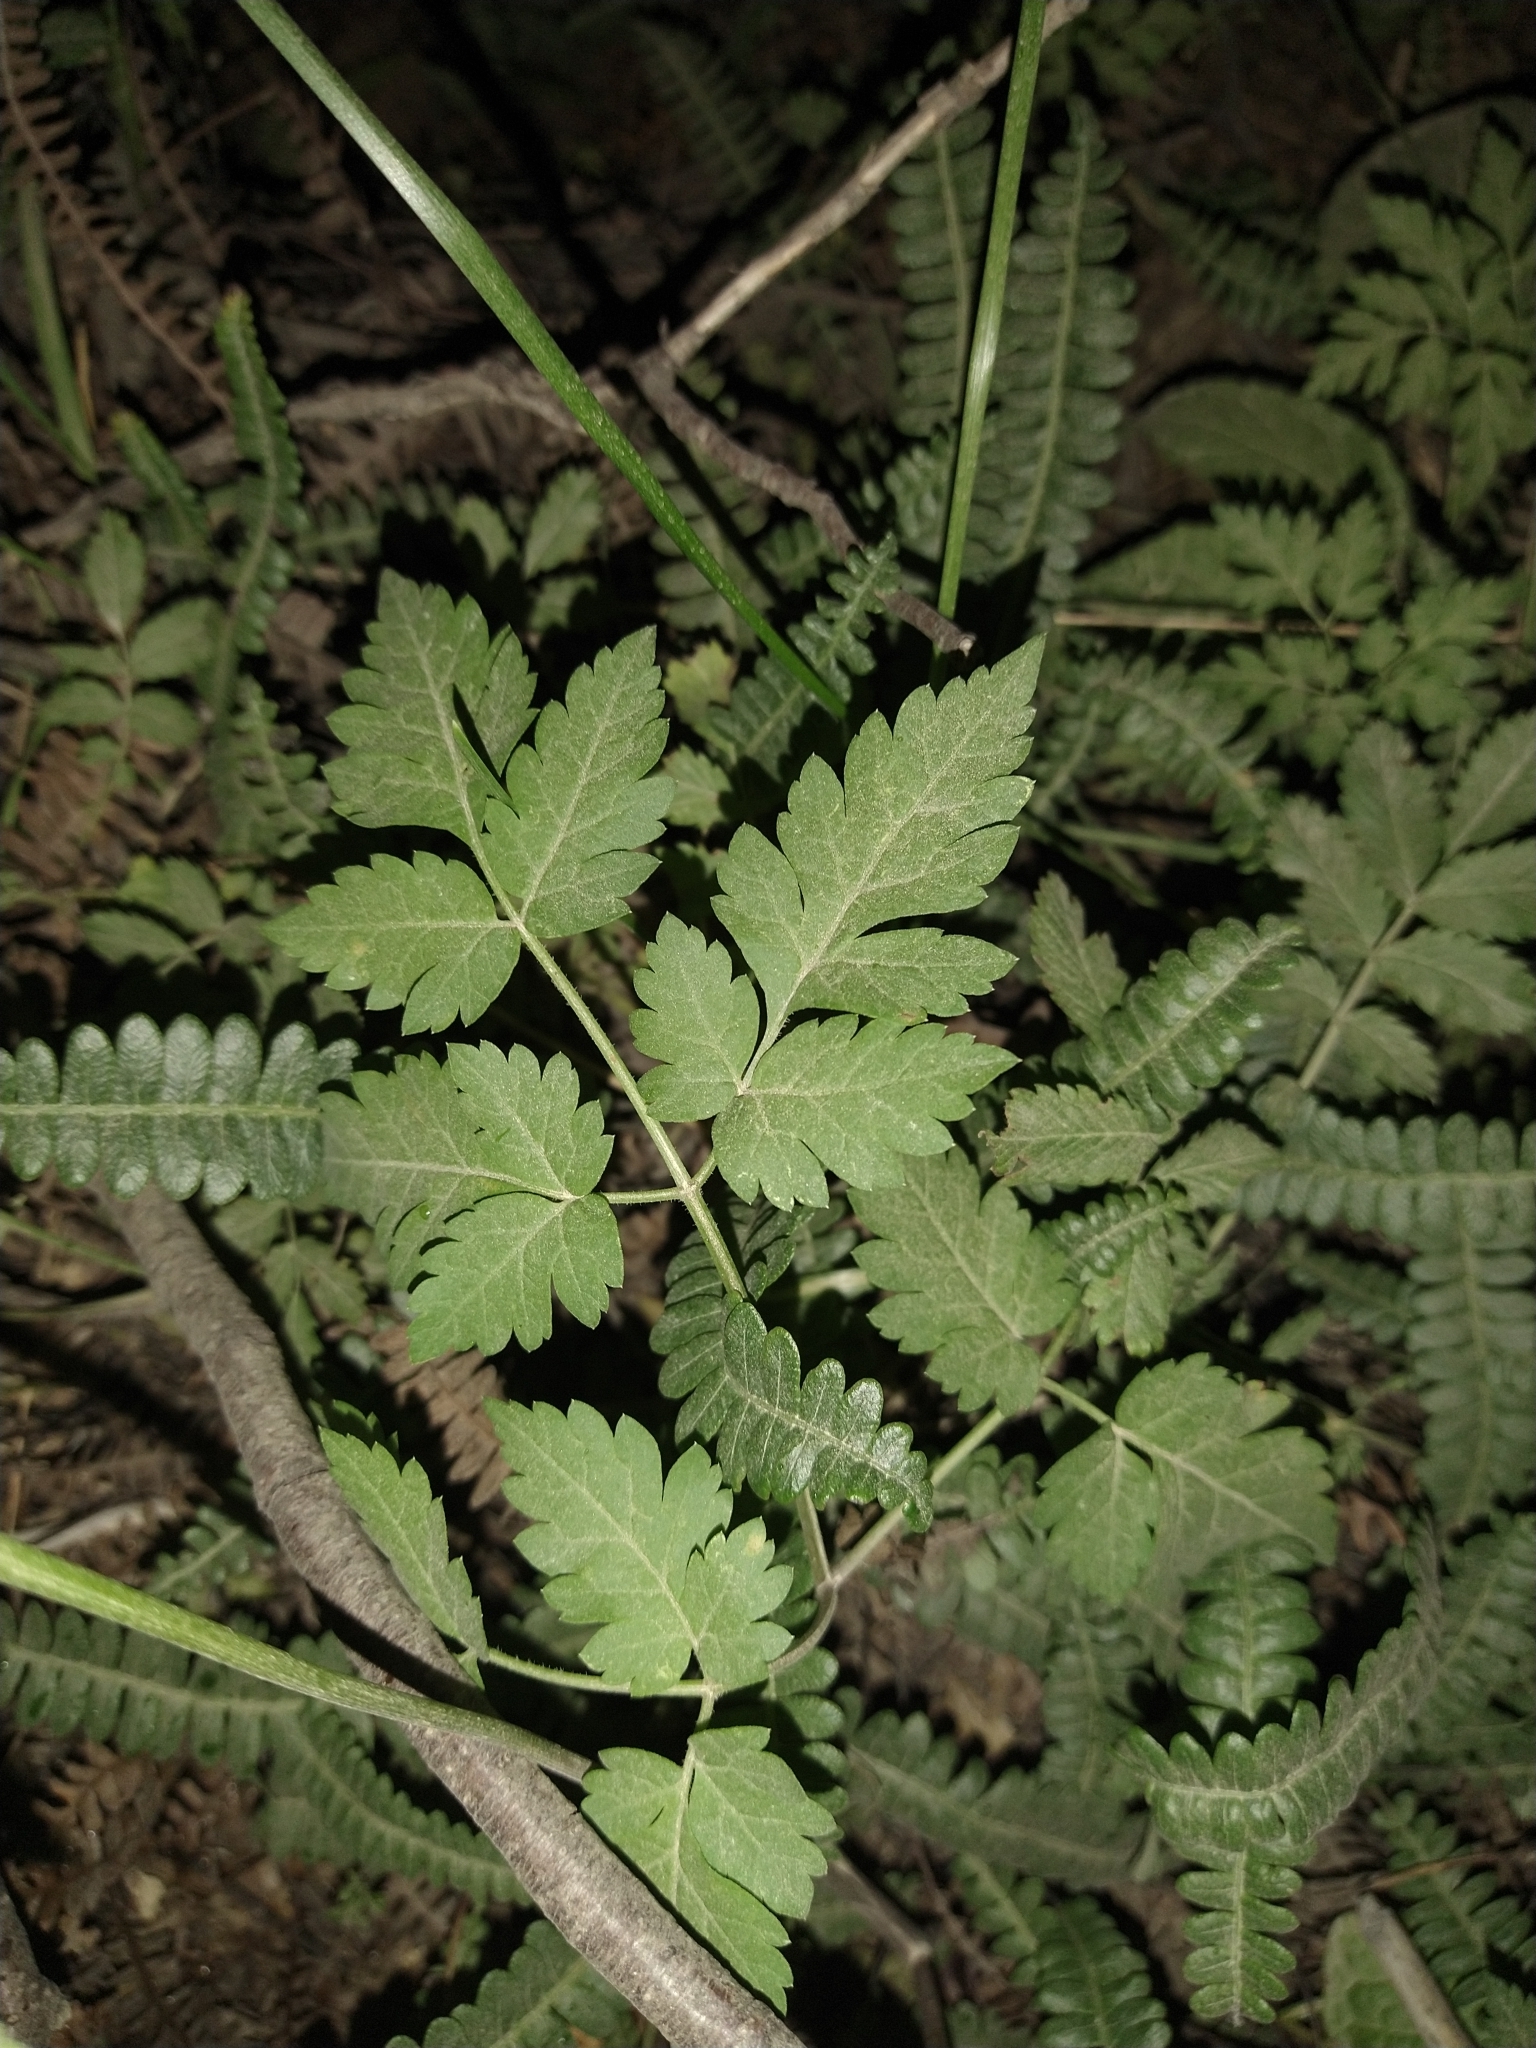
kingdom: Plantae
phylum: Tracheophyta
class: Magnoliopsida
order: Apiales
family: Apiaceae
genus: Osmorhiza
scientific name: Osmorhiza berteroi
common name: Mountain sweet cicely
